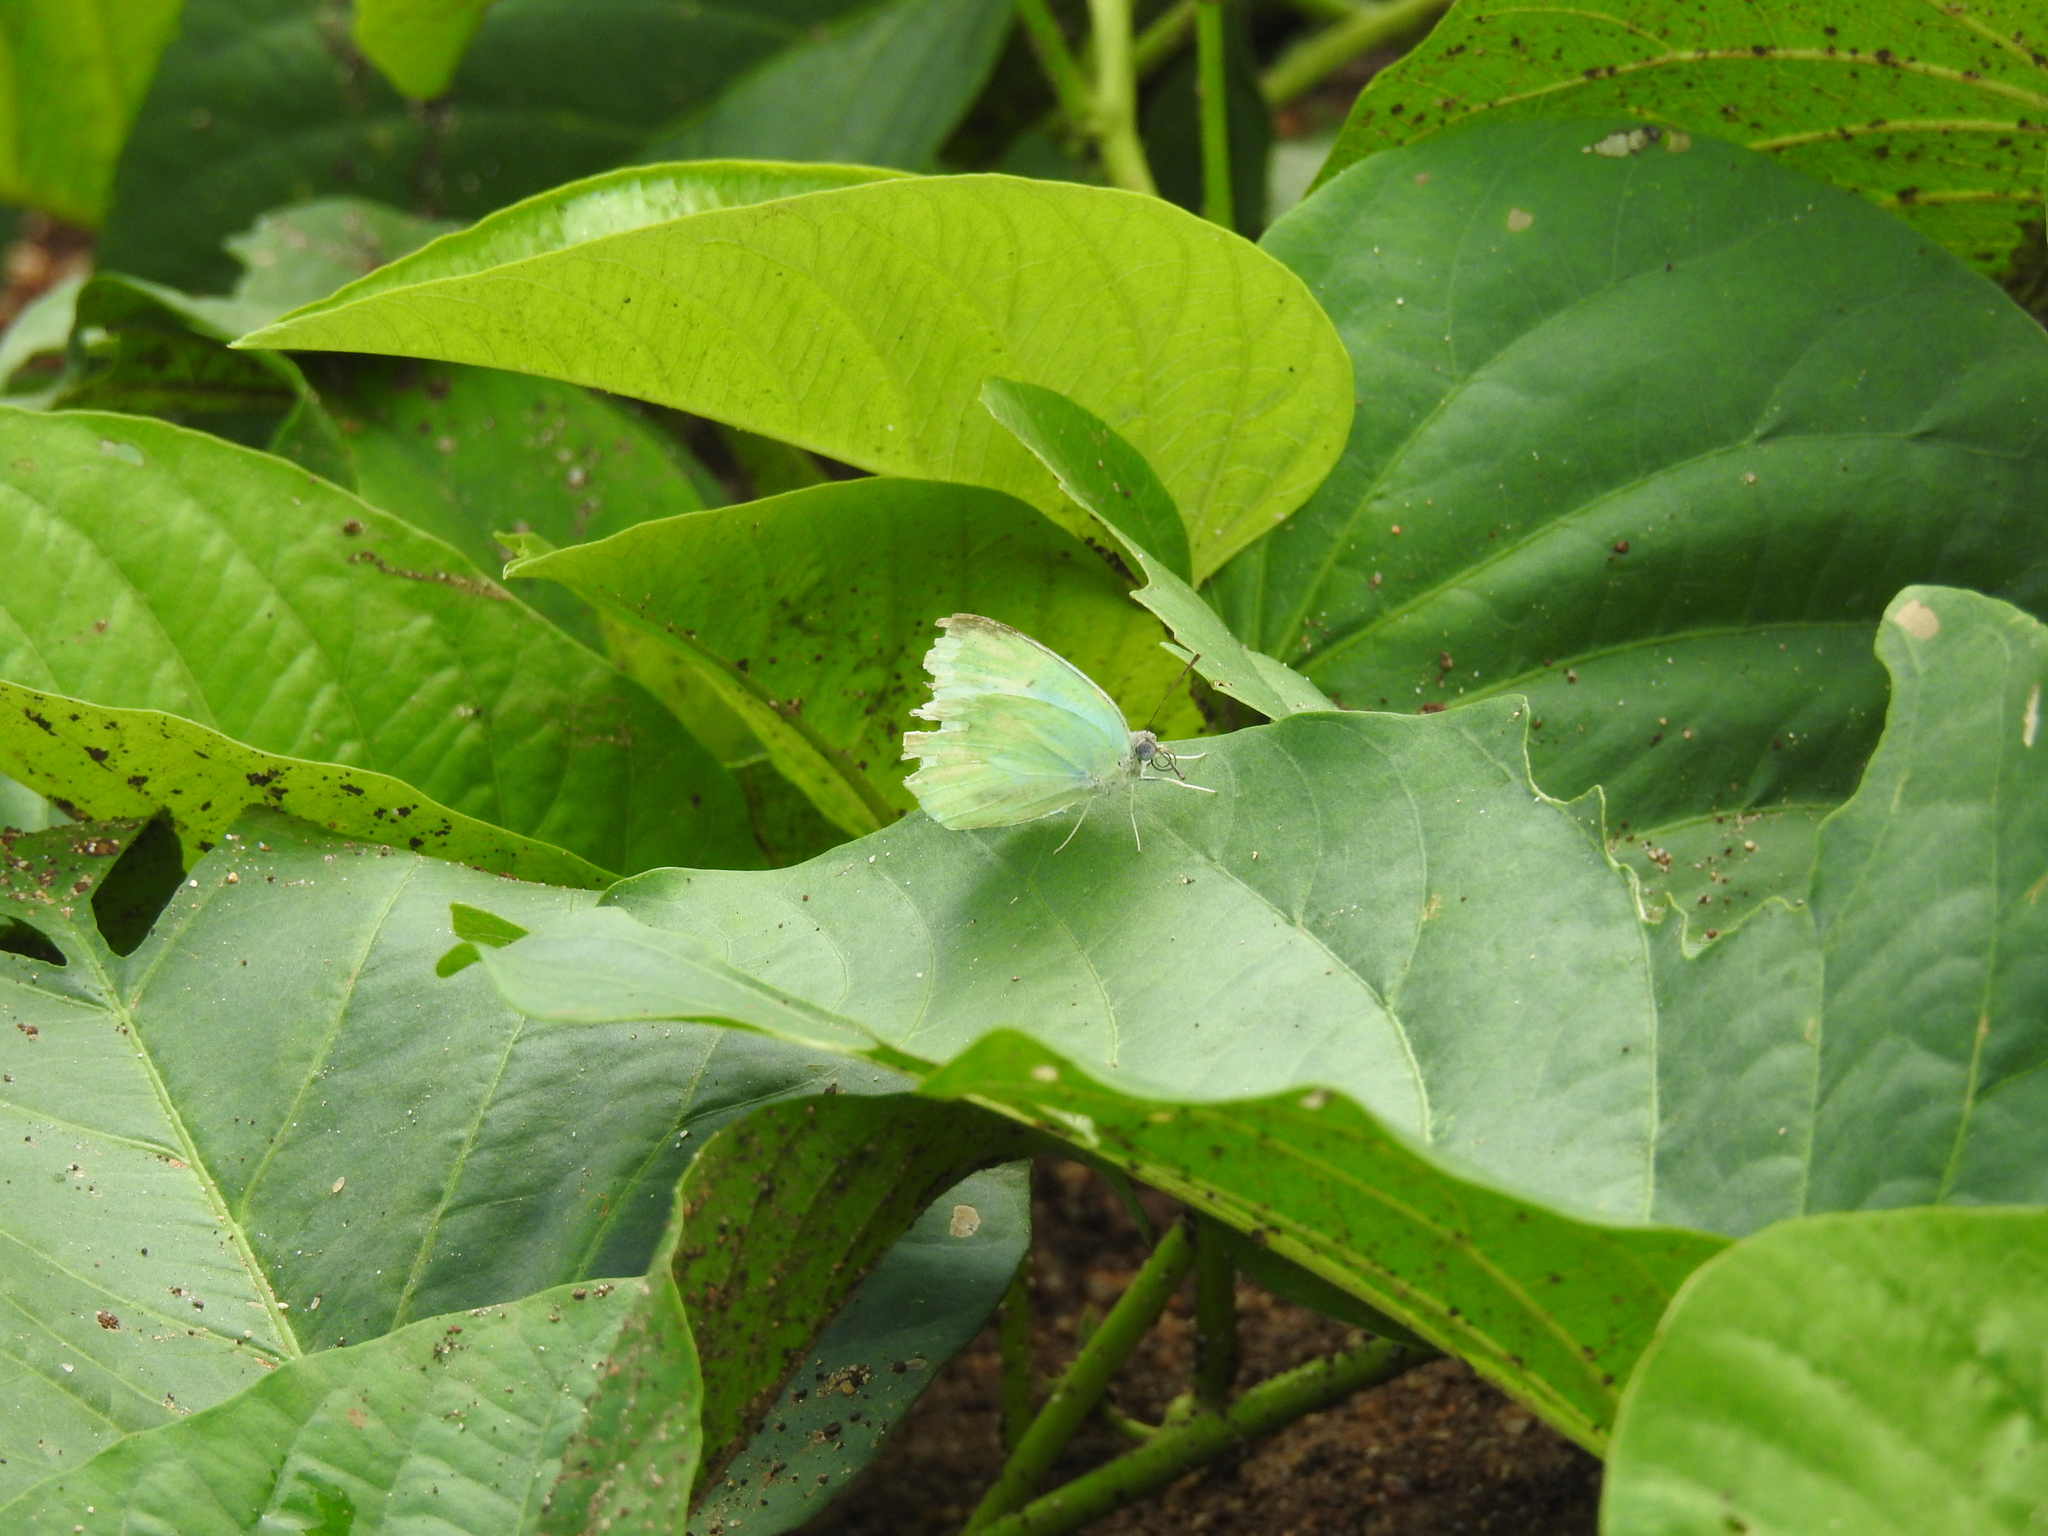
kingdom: Animalia
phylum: Arthropoda
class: Insecta
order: Lepidoptera
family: Pieridae
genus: Catopsilia
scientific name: Catopsilia pomona
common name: Common emigrant
